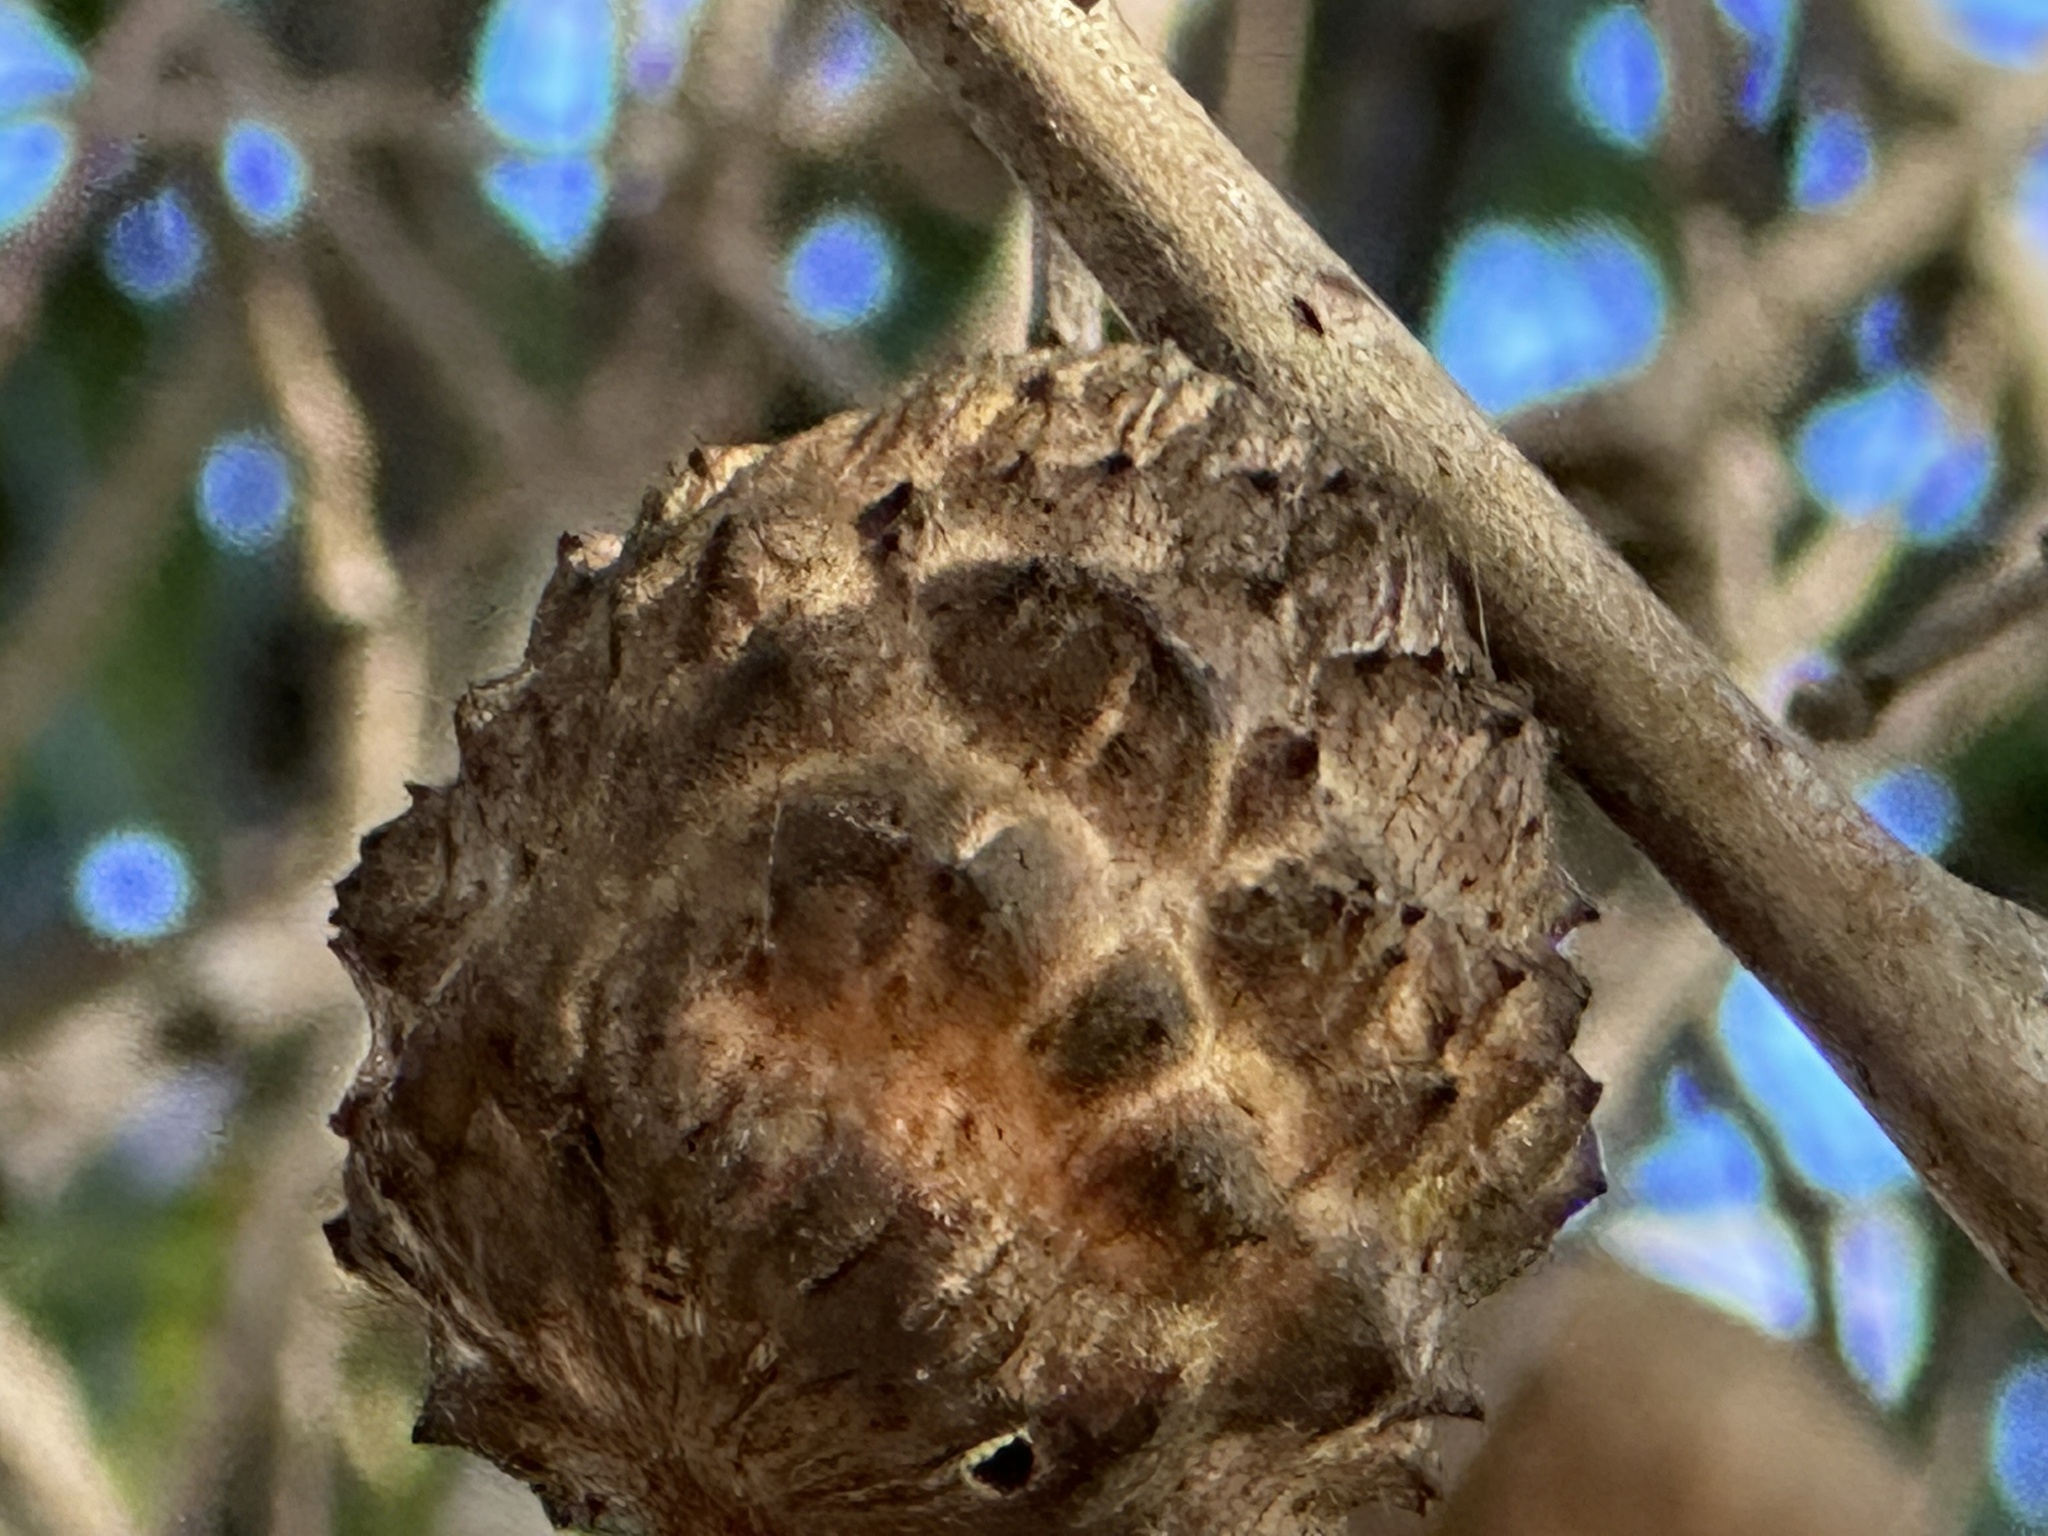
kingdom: Animalia
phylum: Arthropoda
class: Insecta
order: Hymenoptera
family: Cynipidae
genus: Amphibolips
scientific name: Amphibolips quercuspomiformis
